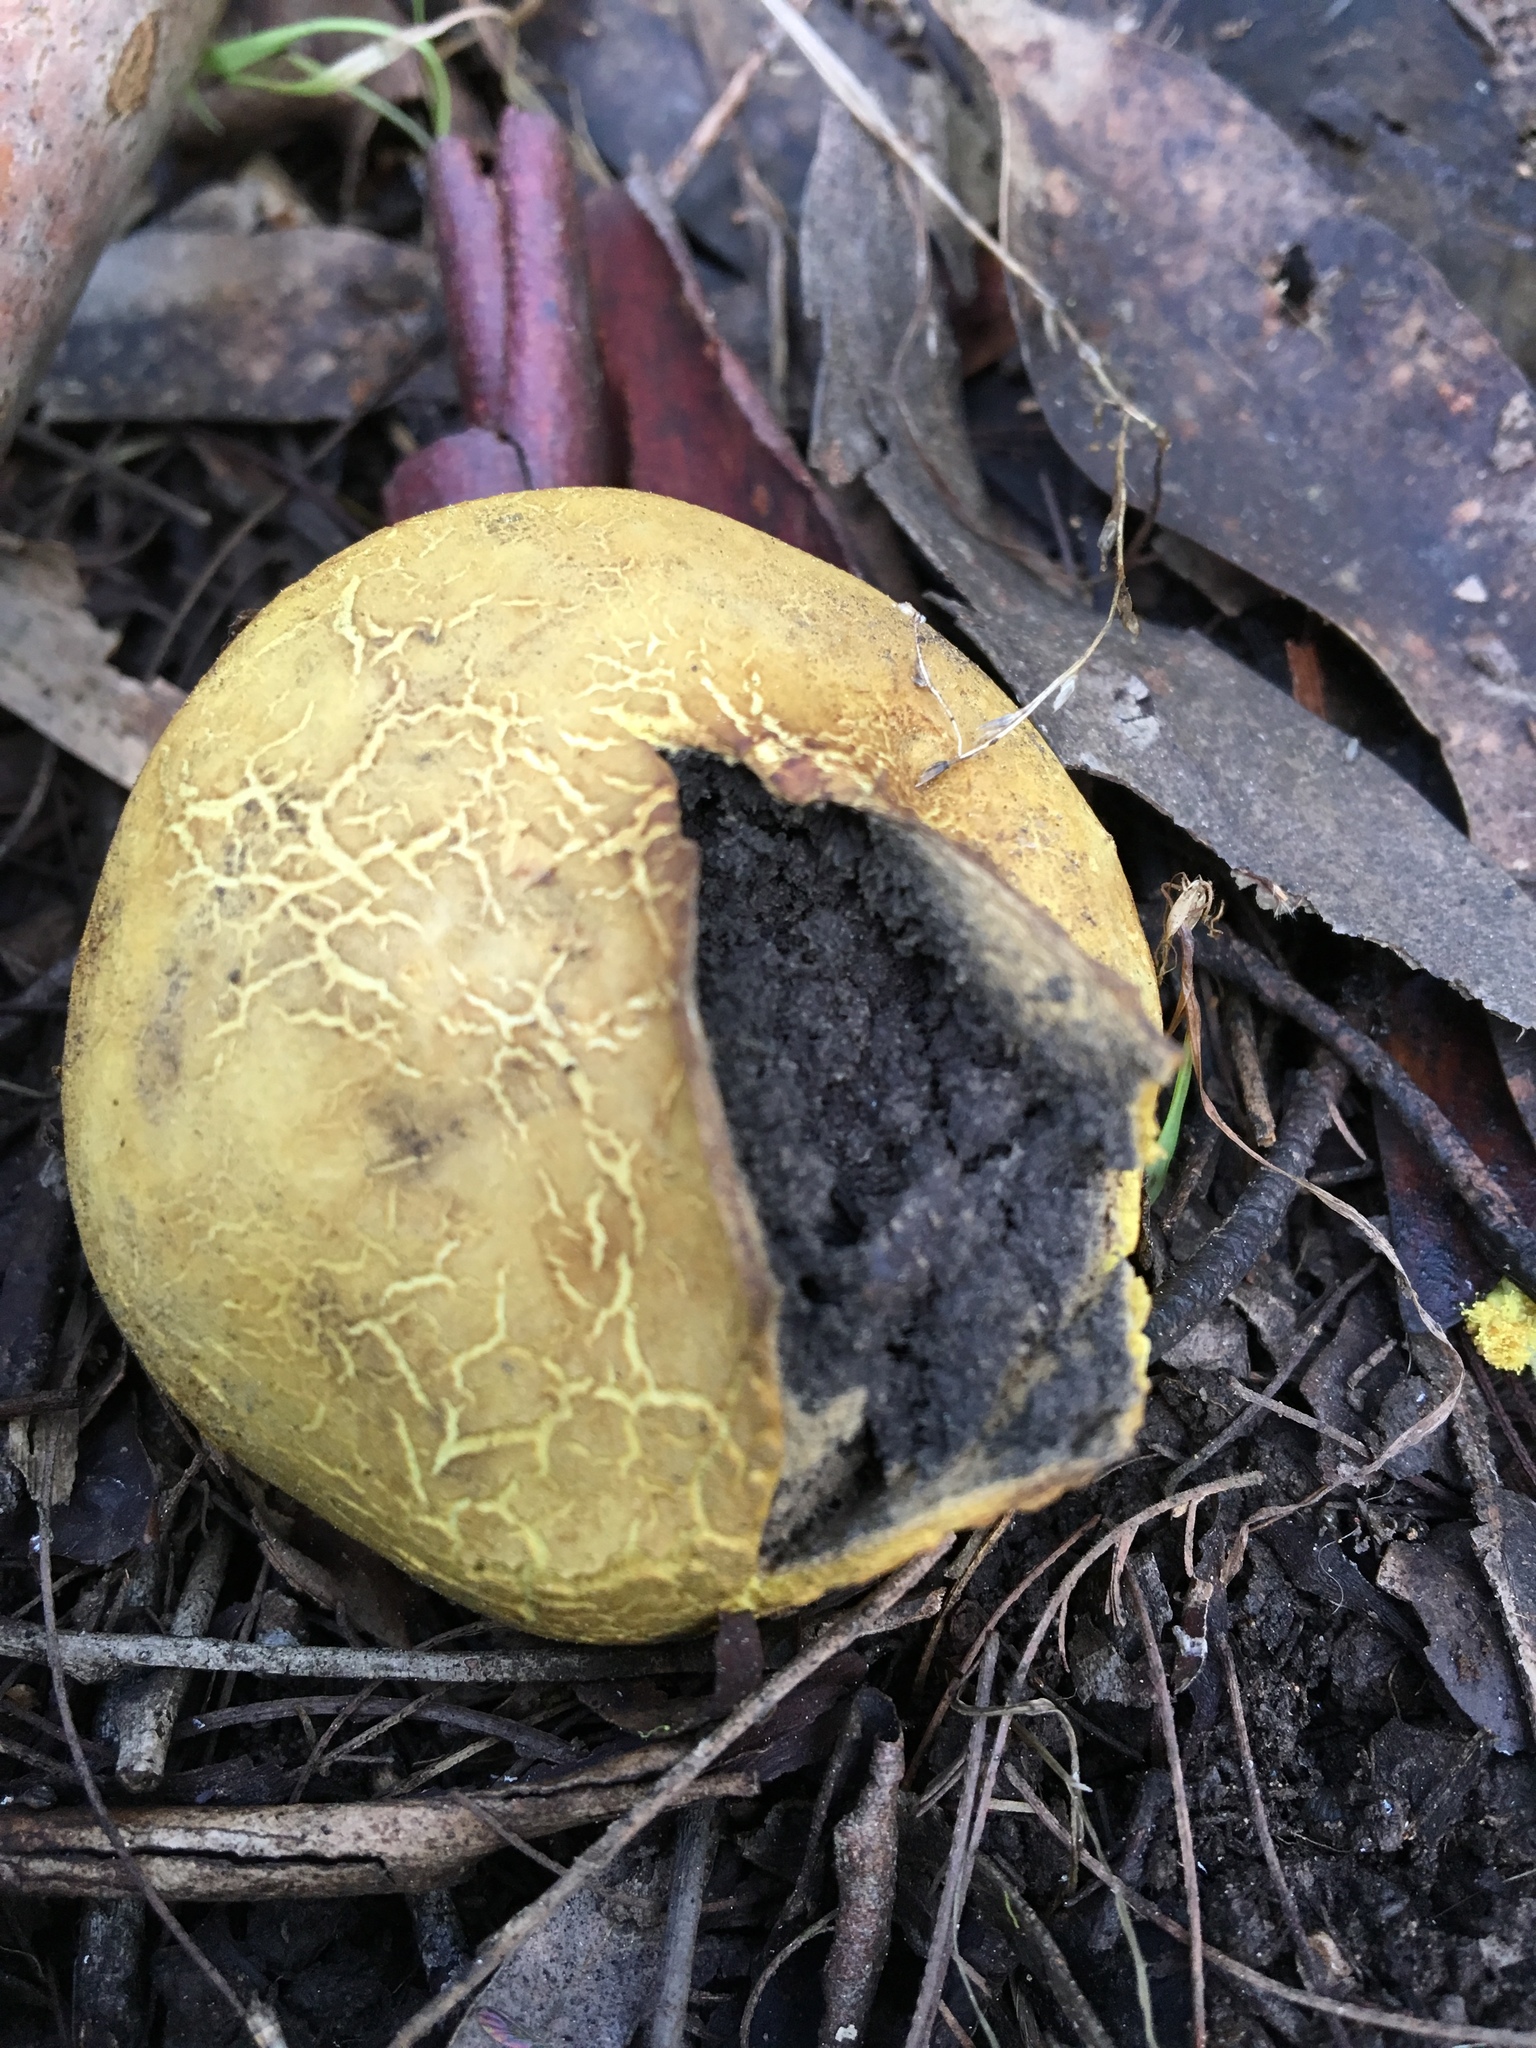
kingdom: Fungi
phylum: Basidiomycota
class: Agaricomycetes
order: Boletales
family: Sclerodermataceae
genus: Scleroderma
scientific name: Scleroderma cepa
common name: Onion earthball
